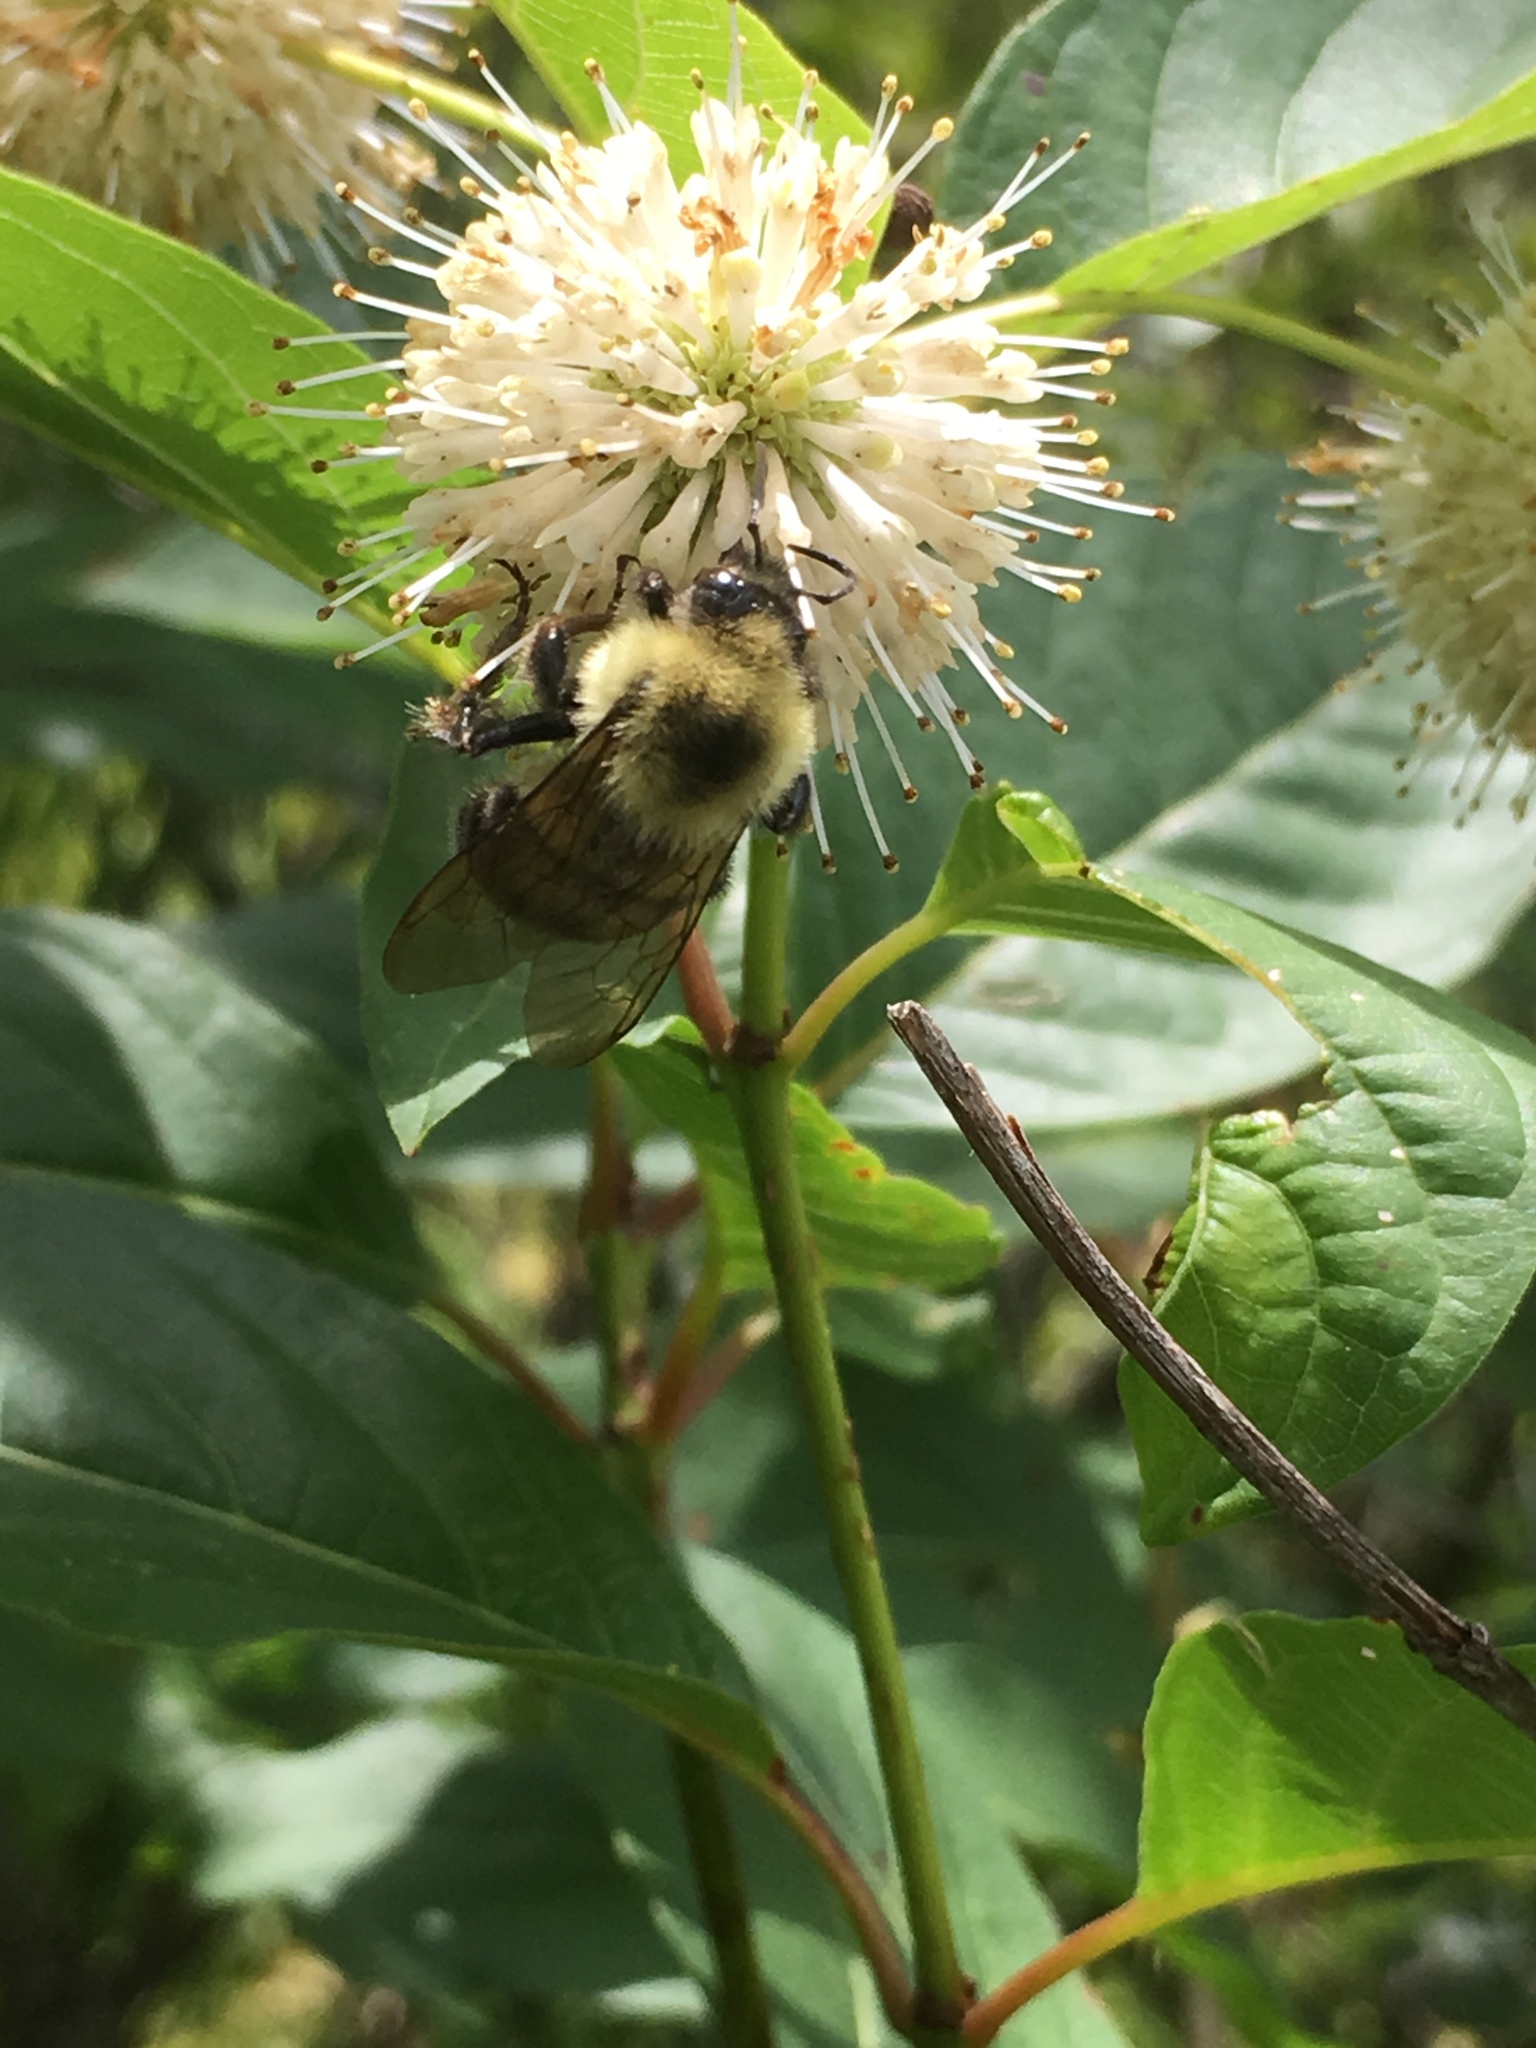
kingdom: Animalia
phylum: Arthropoda
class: Insecta
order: Hymenoptera
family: Apidae
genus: Bombus
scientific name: Bombus bimaculatus
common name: Two-spotted bumble bee
